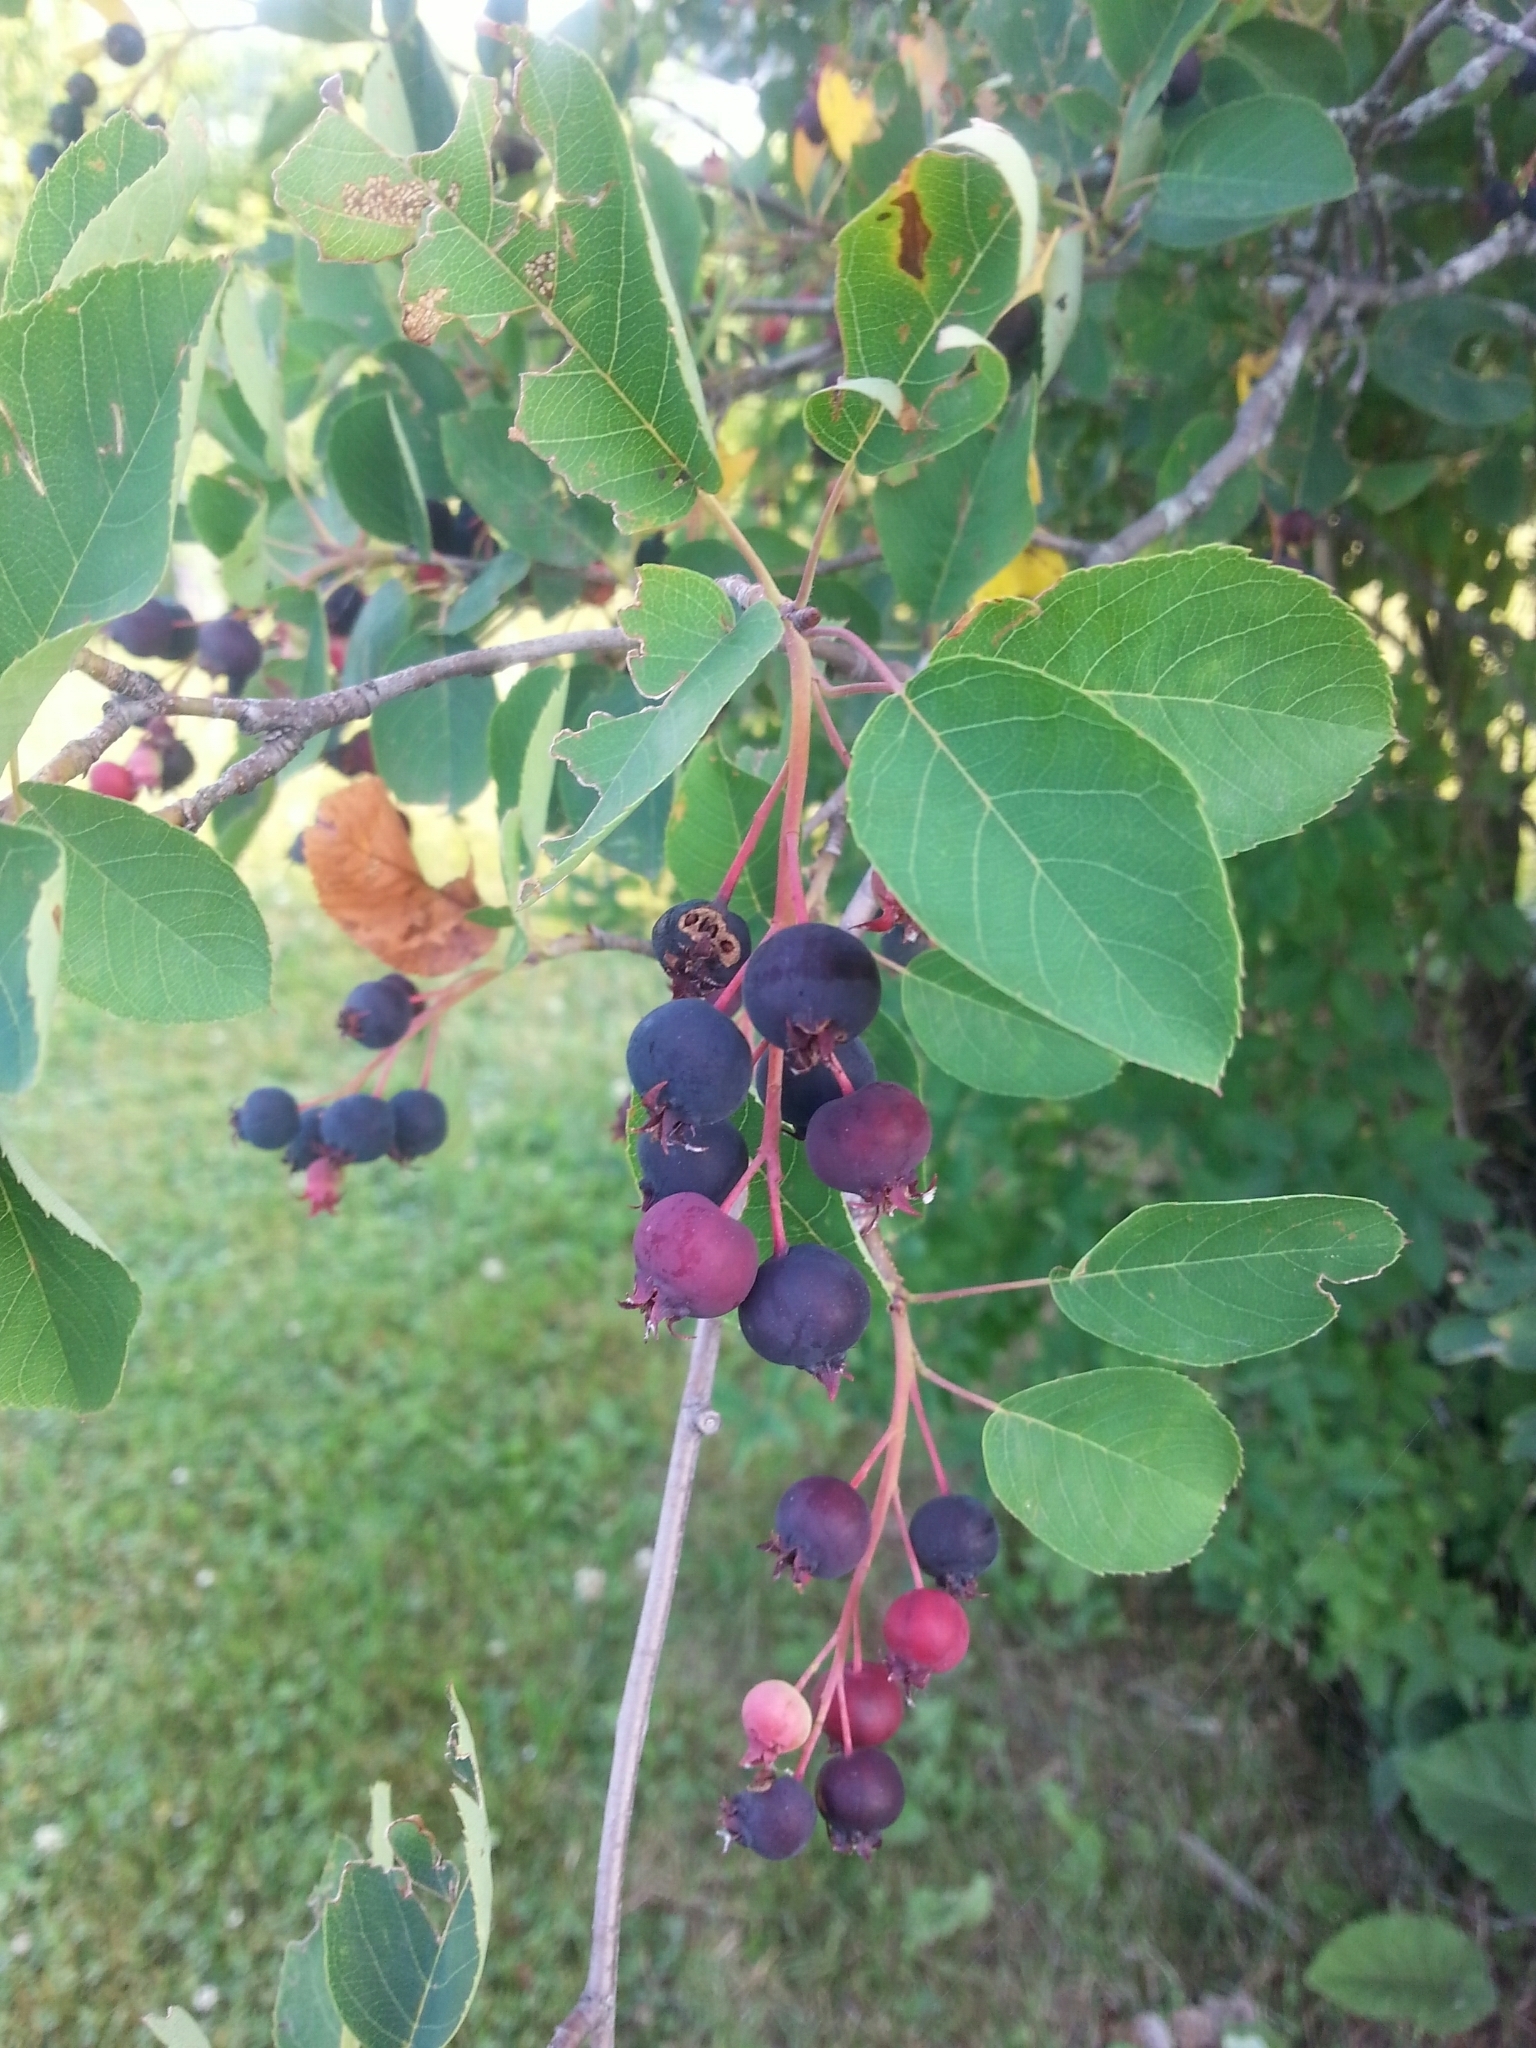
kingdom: Plantae
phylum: Tracheophyta
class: Magnoliopsida
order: Rosales
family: Rosaceae
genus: Amelanchier
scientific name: Amelanchier canadensis
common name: Thicket serviceberry
